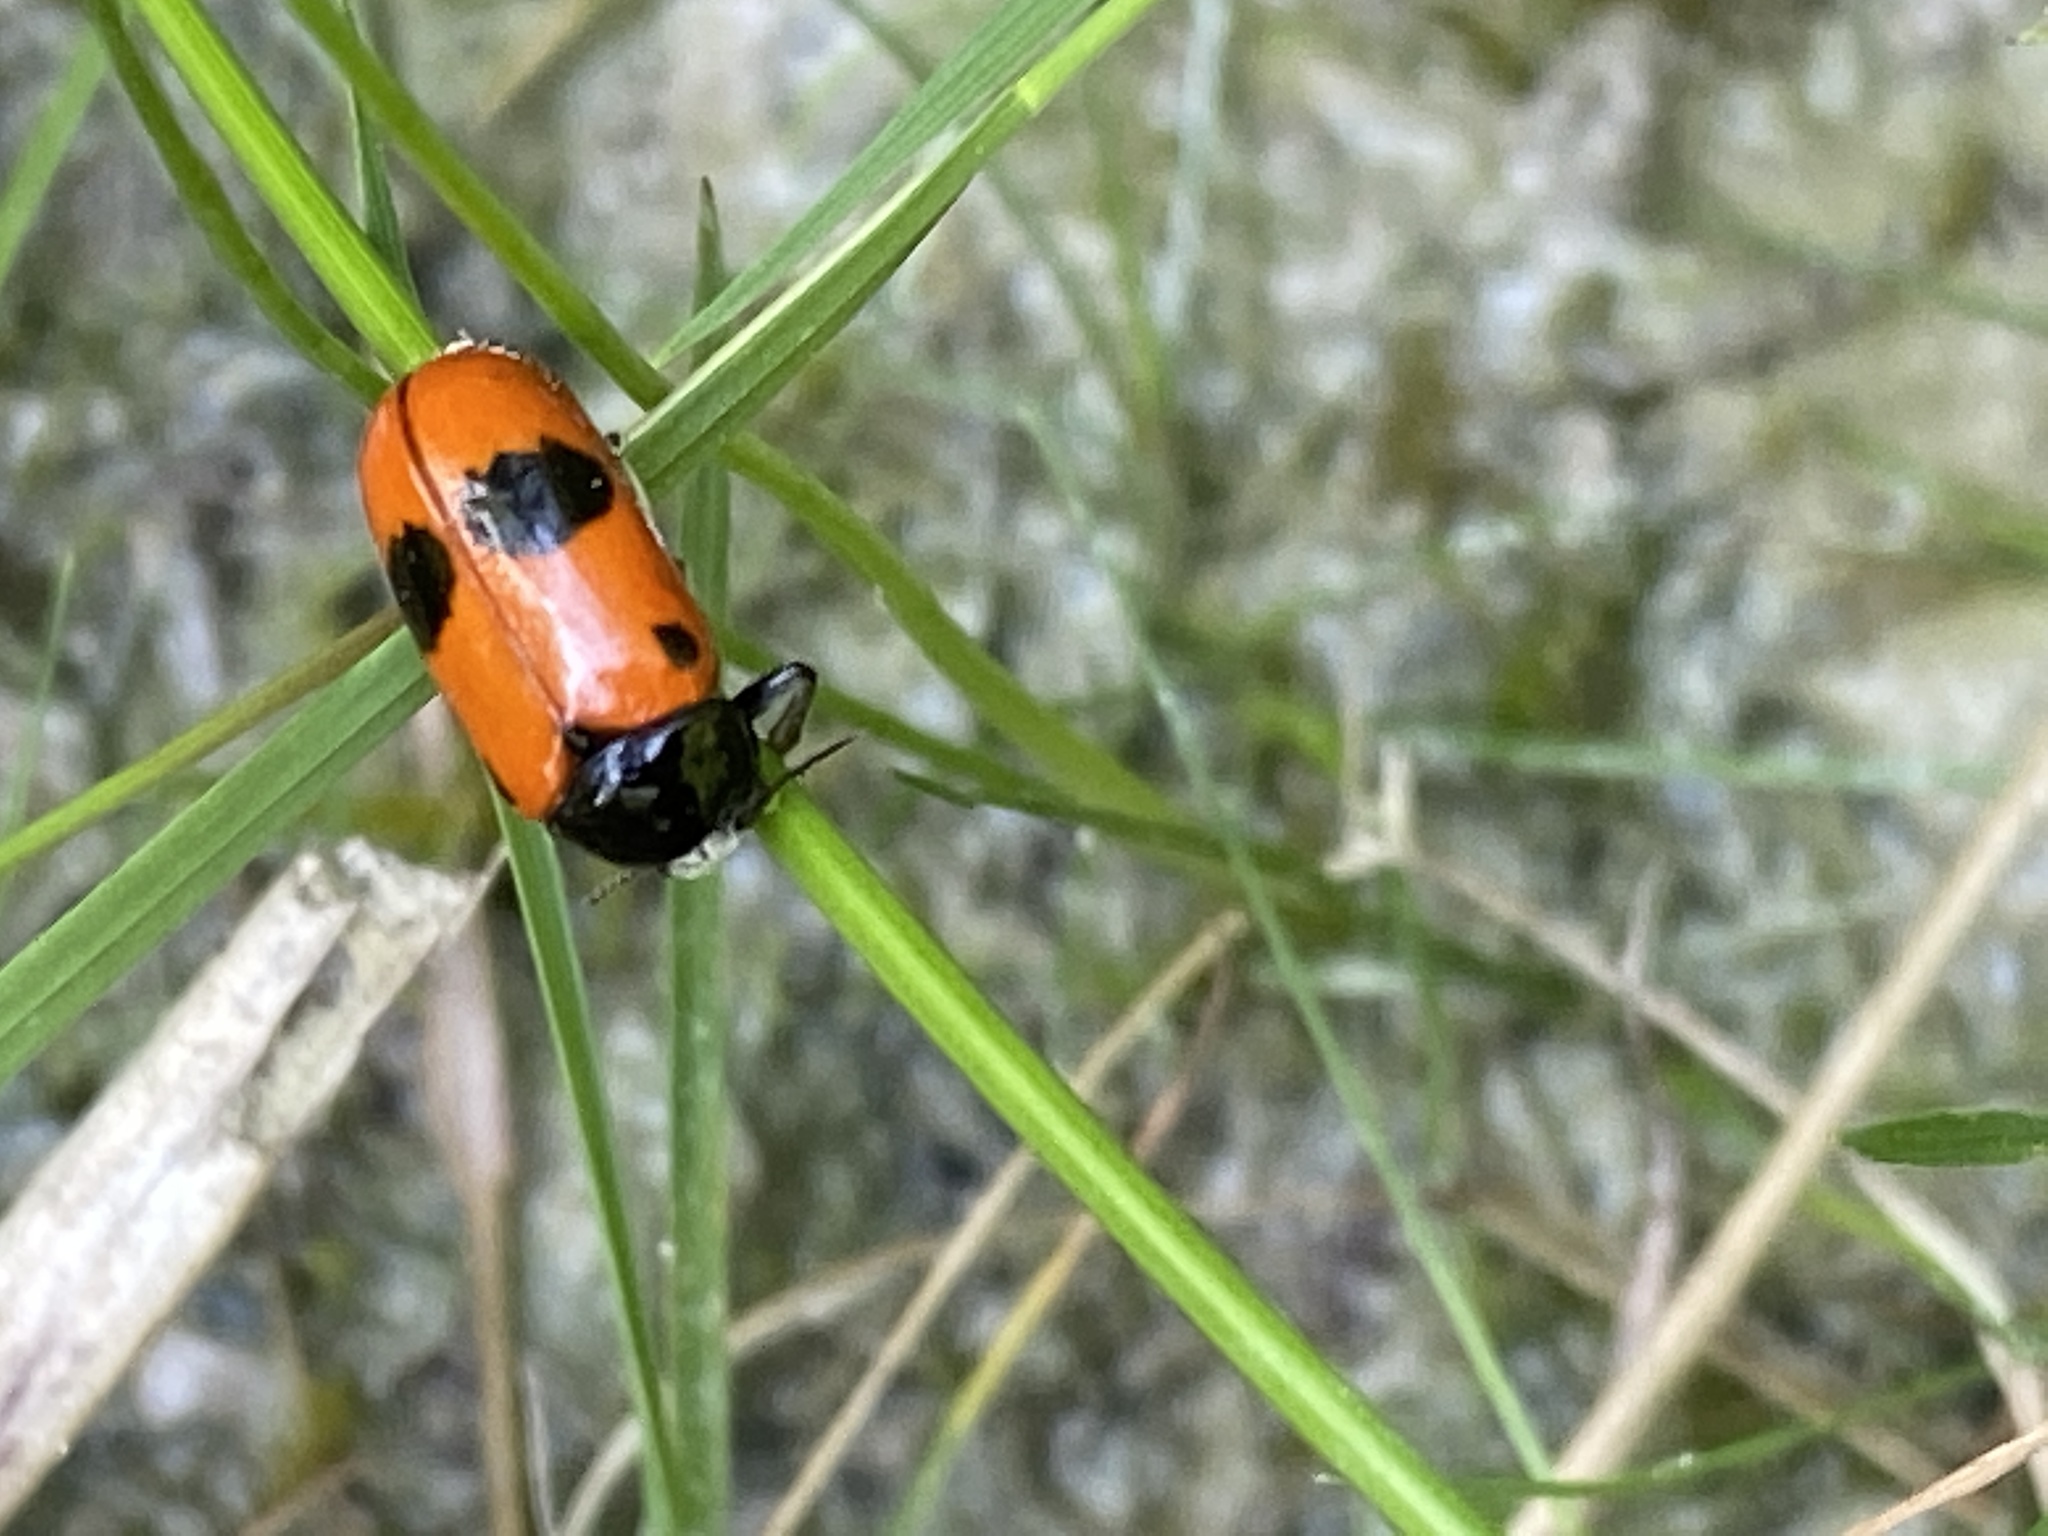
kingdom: Animalia
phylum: Arthropoda
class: Insecta
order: Coleoptera
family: Chrysomelidae
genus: Clytra
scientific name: Clytra laeviuscula
